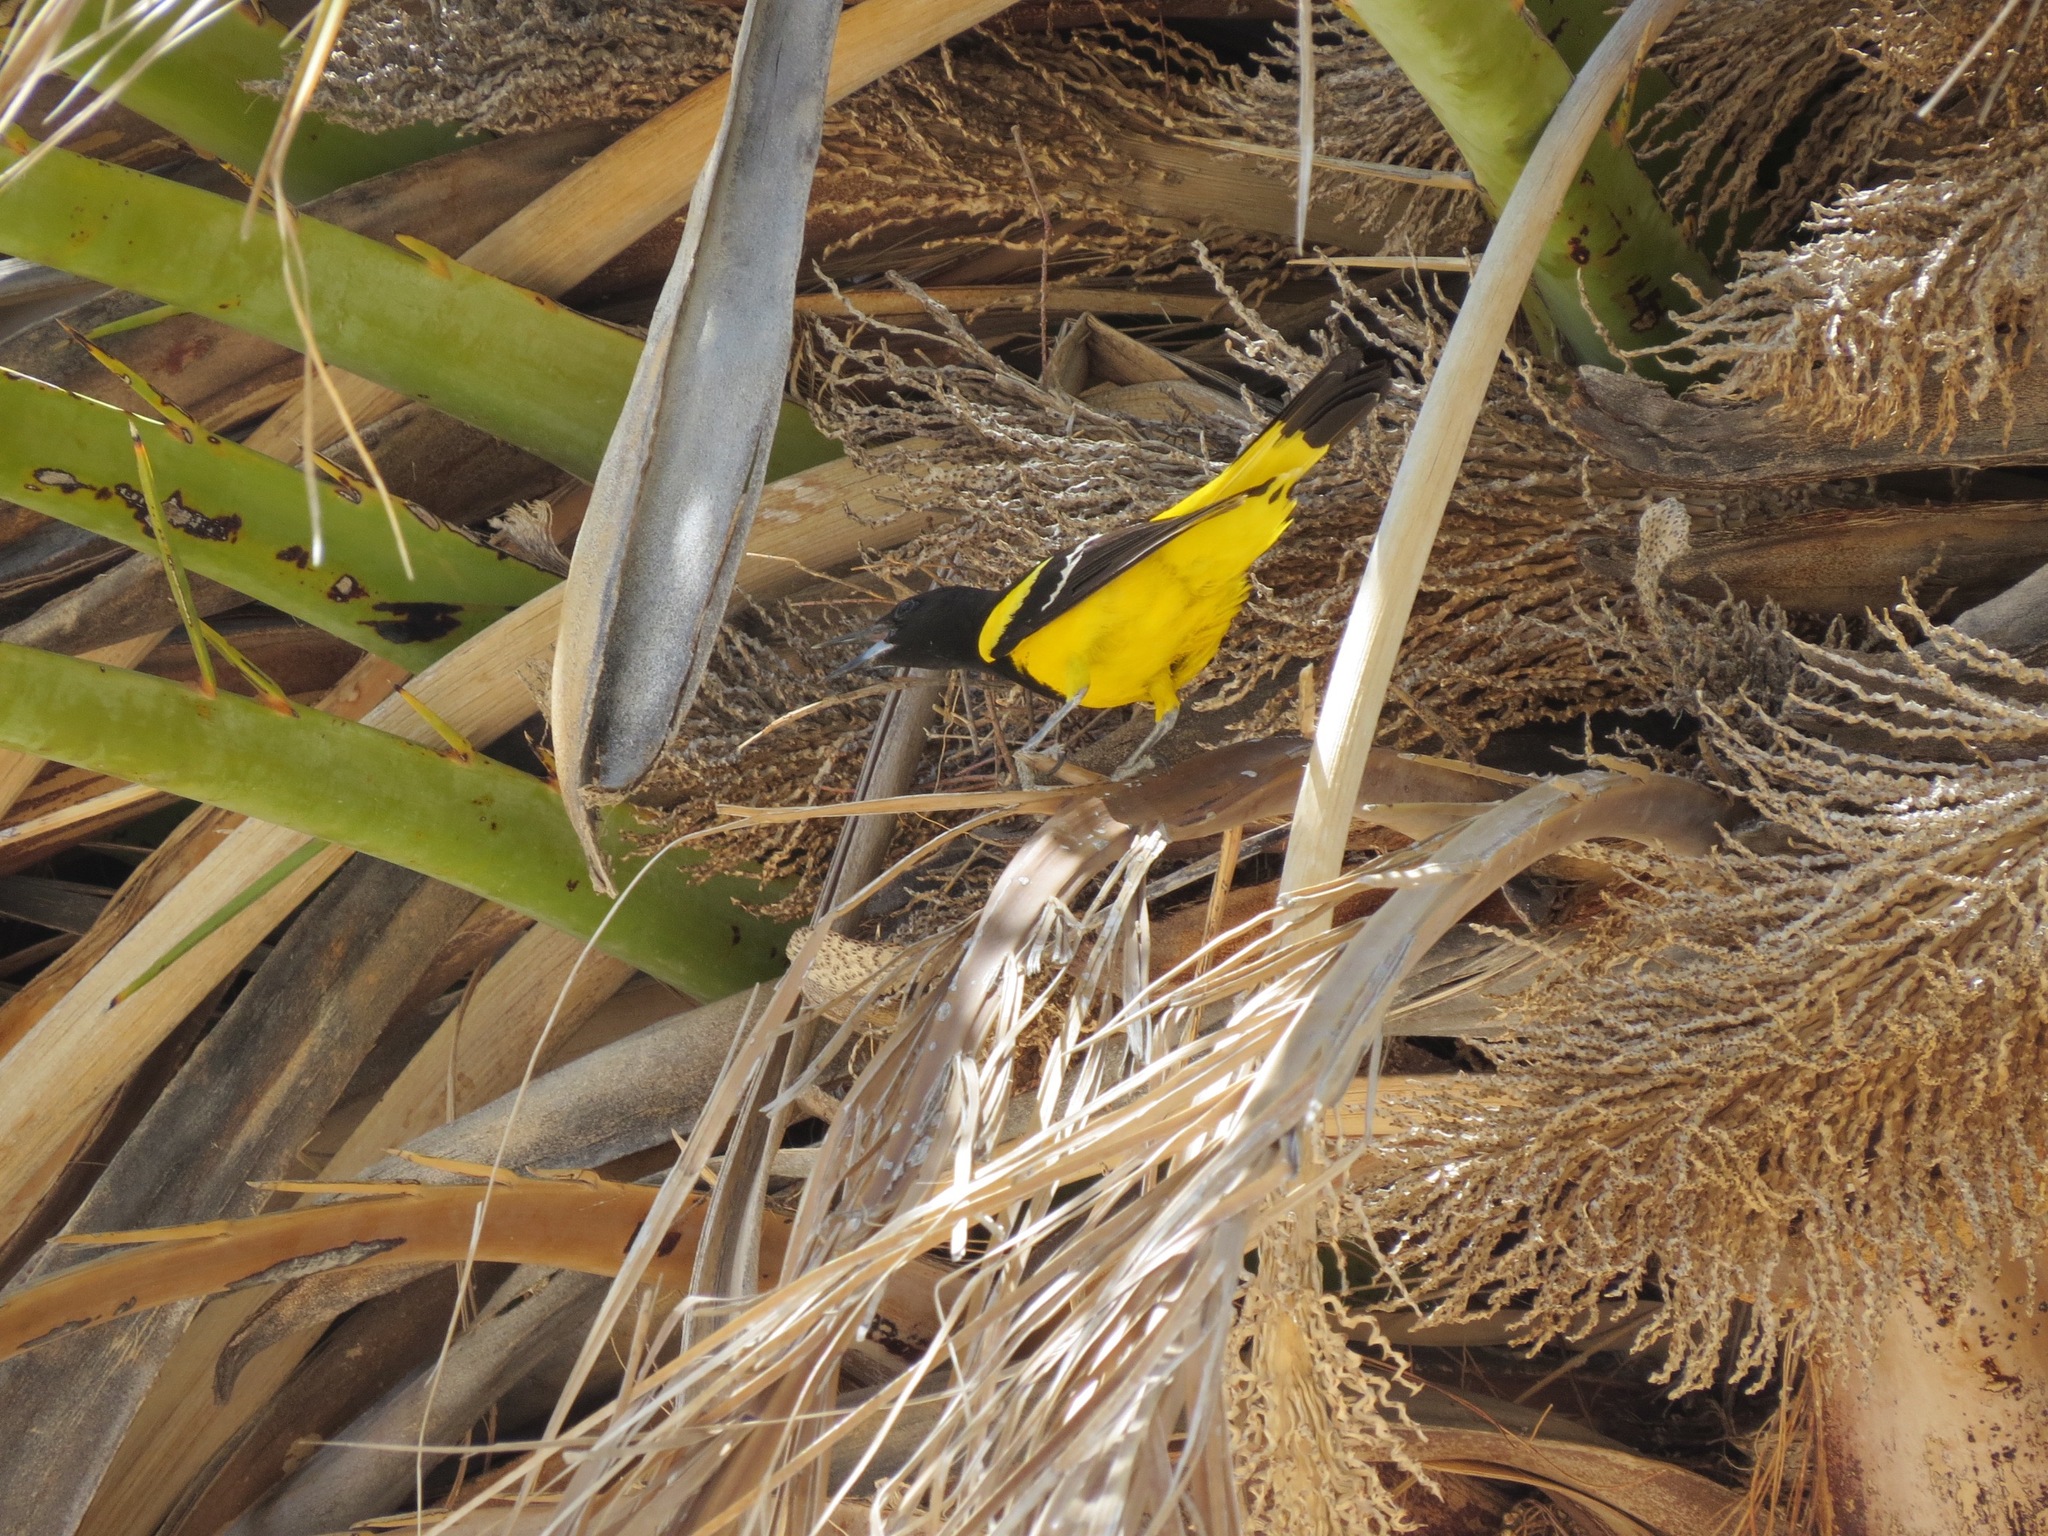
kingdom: Animalia
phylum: Chordata
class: Aves
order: Passeriformes
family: Icteridae
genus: Icterus
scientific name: Icterus parisorum
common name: Scott's oriole
